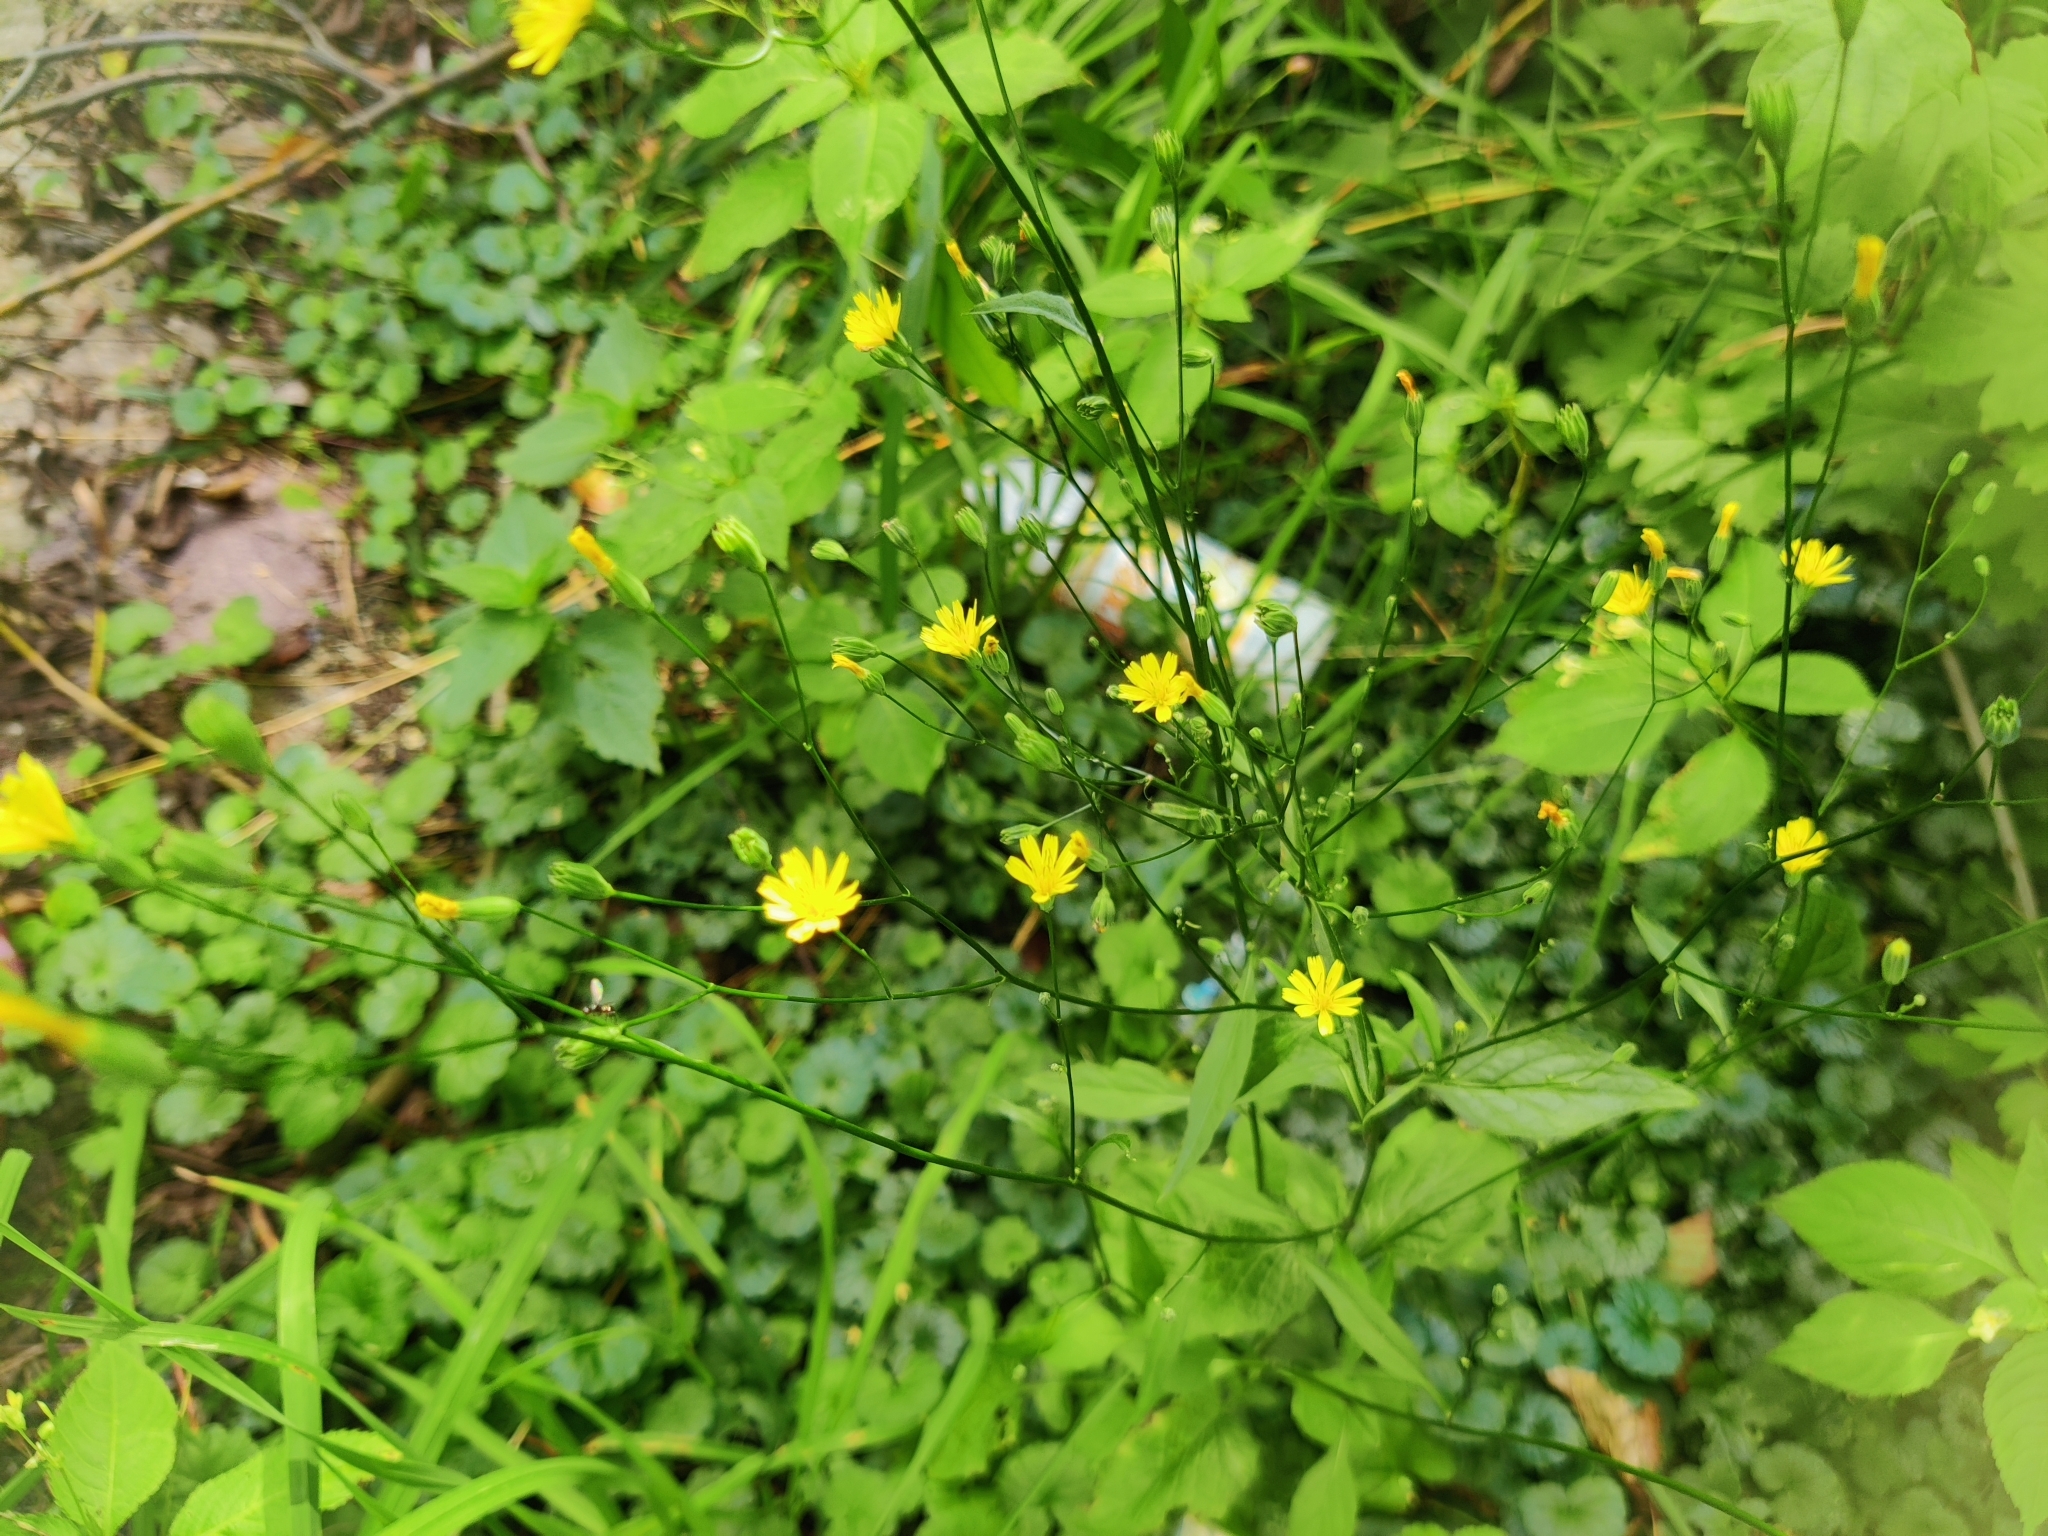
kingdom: Plantae
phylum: Tracheophyta
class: Magnoliopsida
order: Asterales
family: Asteraceae
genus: Lapsana
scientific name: Lapsana communis
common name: Nipplewort
